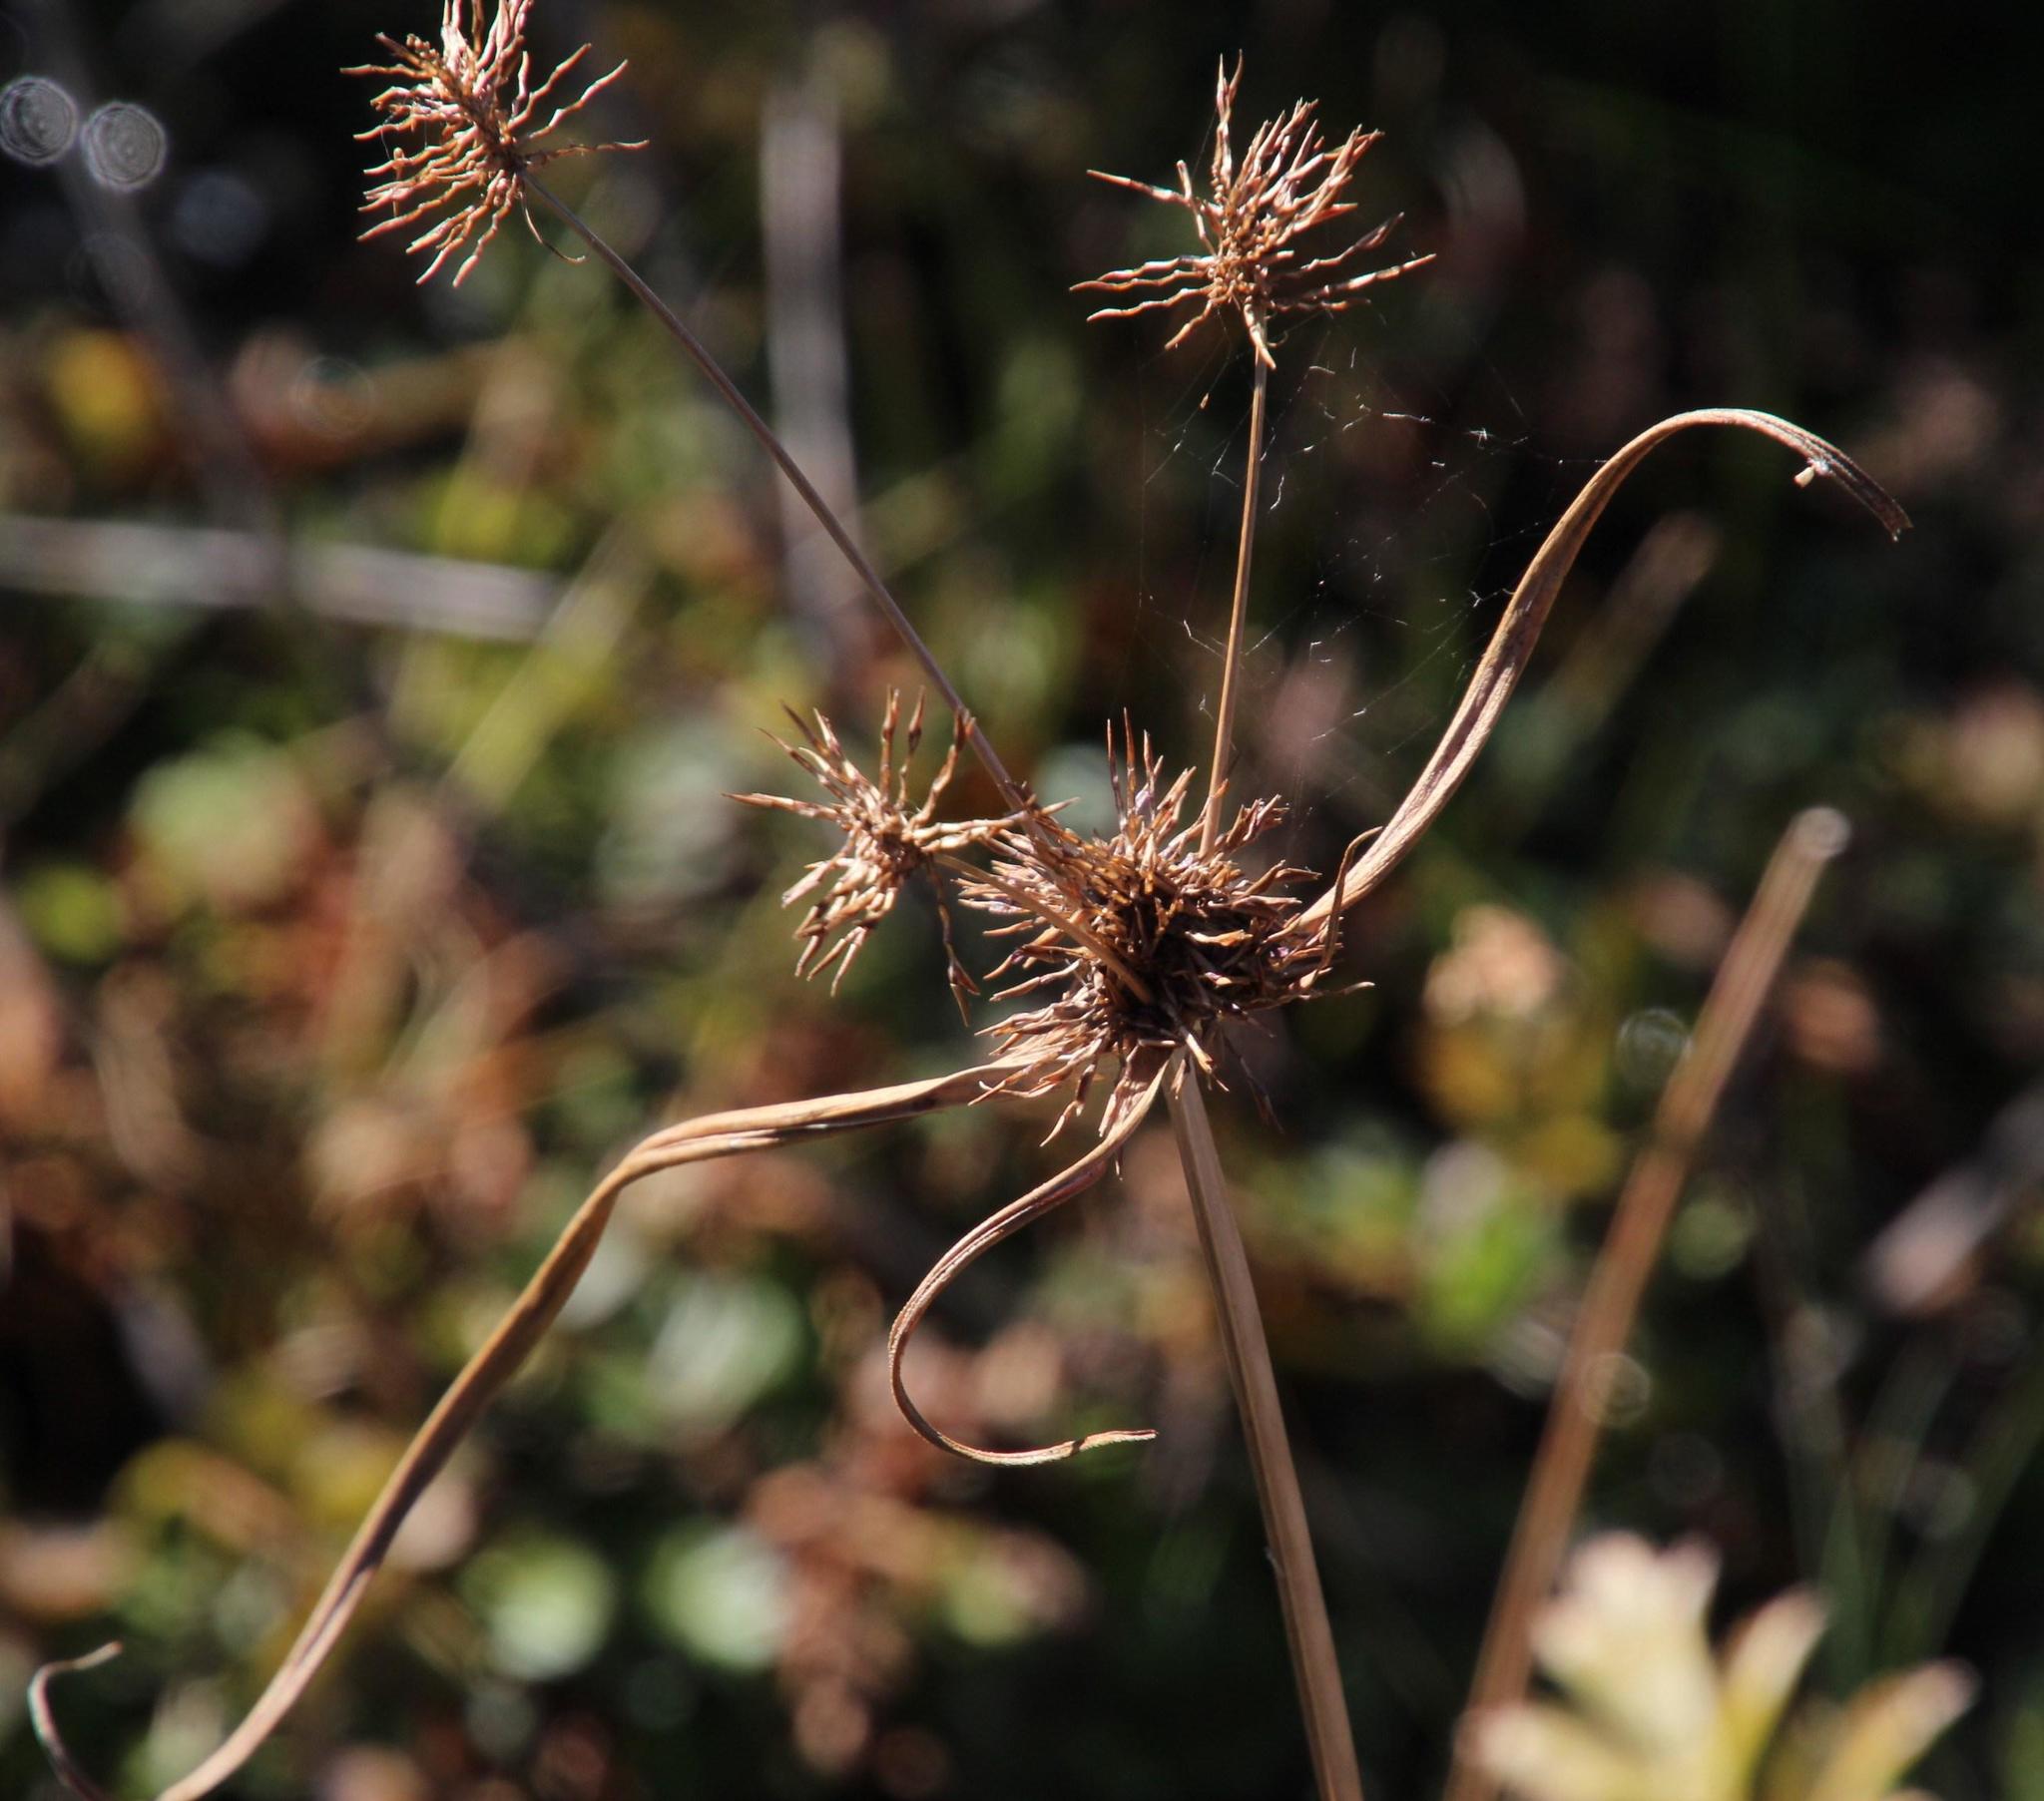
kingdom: Plantae
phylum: Tracheophyta
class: Liliopsida
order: Poales
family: Cyperaceae
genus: Cyperus
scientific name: Cyperus congestus
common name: Dense flat sedge
